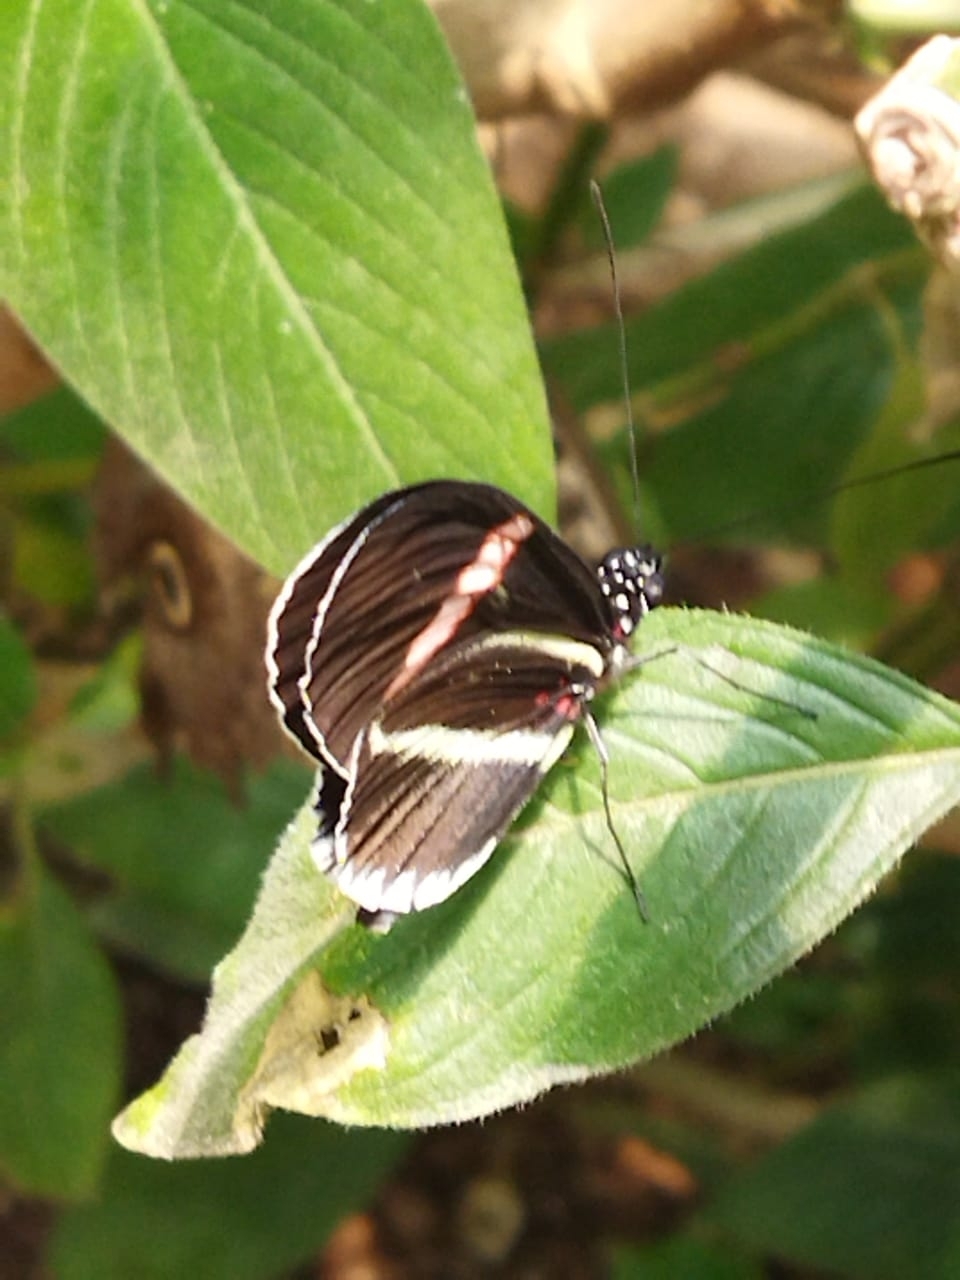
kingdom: Animalia
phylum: Arthropoda
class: Insecta
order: Lepidoptera
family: Nymphalidae
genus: Heliconius
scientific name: Heliconius erato
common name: Common patch longwing
